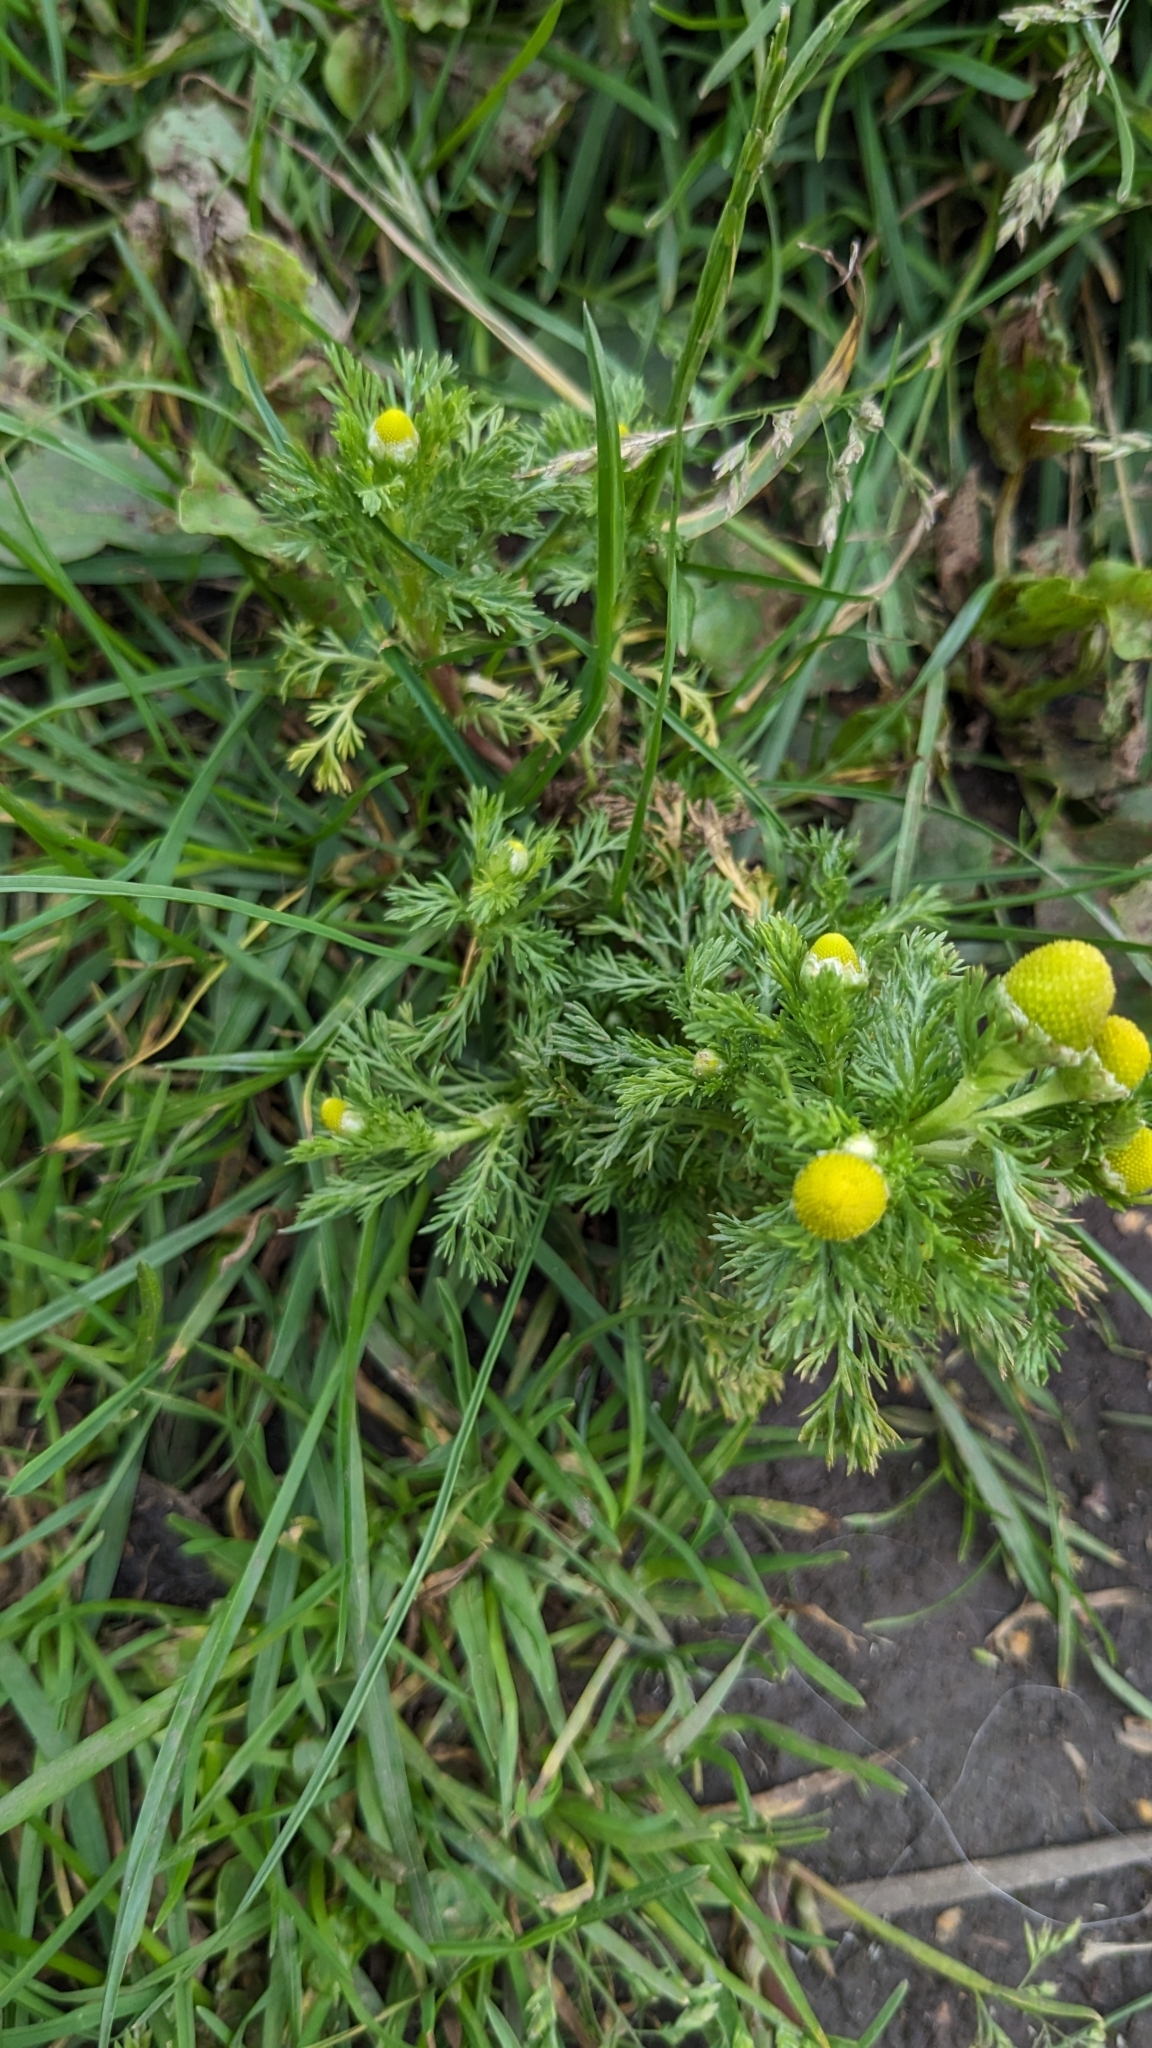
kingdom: Plantae
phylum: Tracheophyta
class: Magnoliopsida
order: Asterales
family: Asteraceae
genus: Matricaria
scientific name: Matricaria discoidea
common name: Disc mayweed
